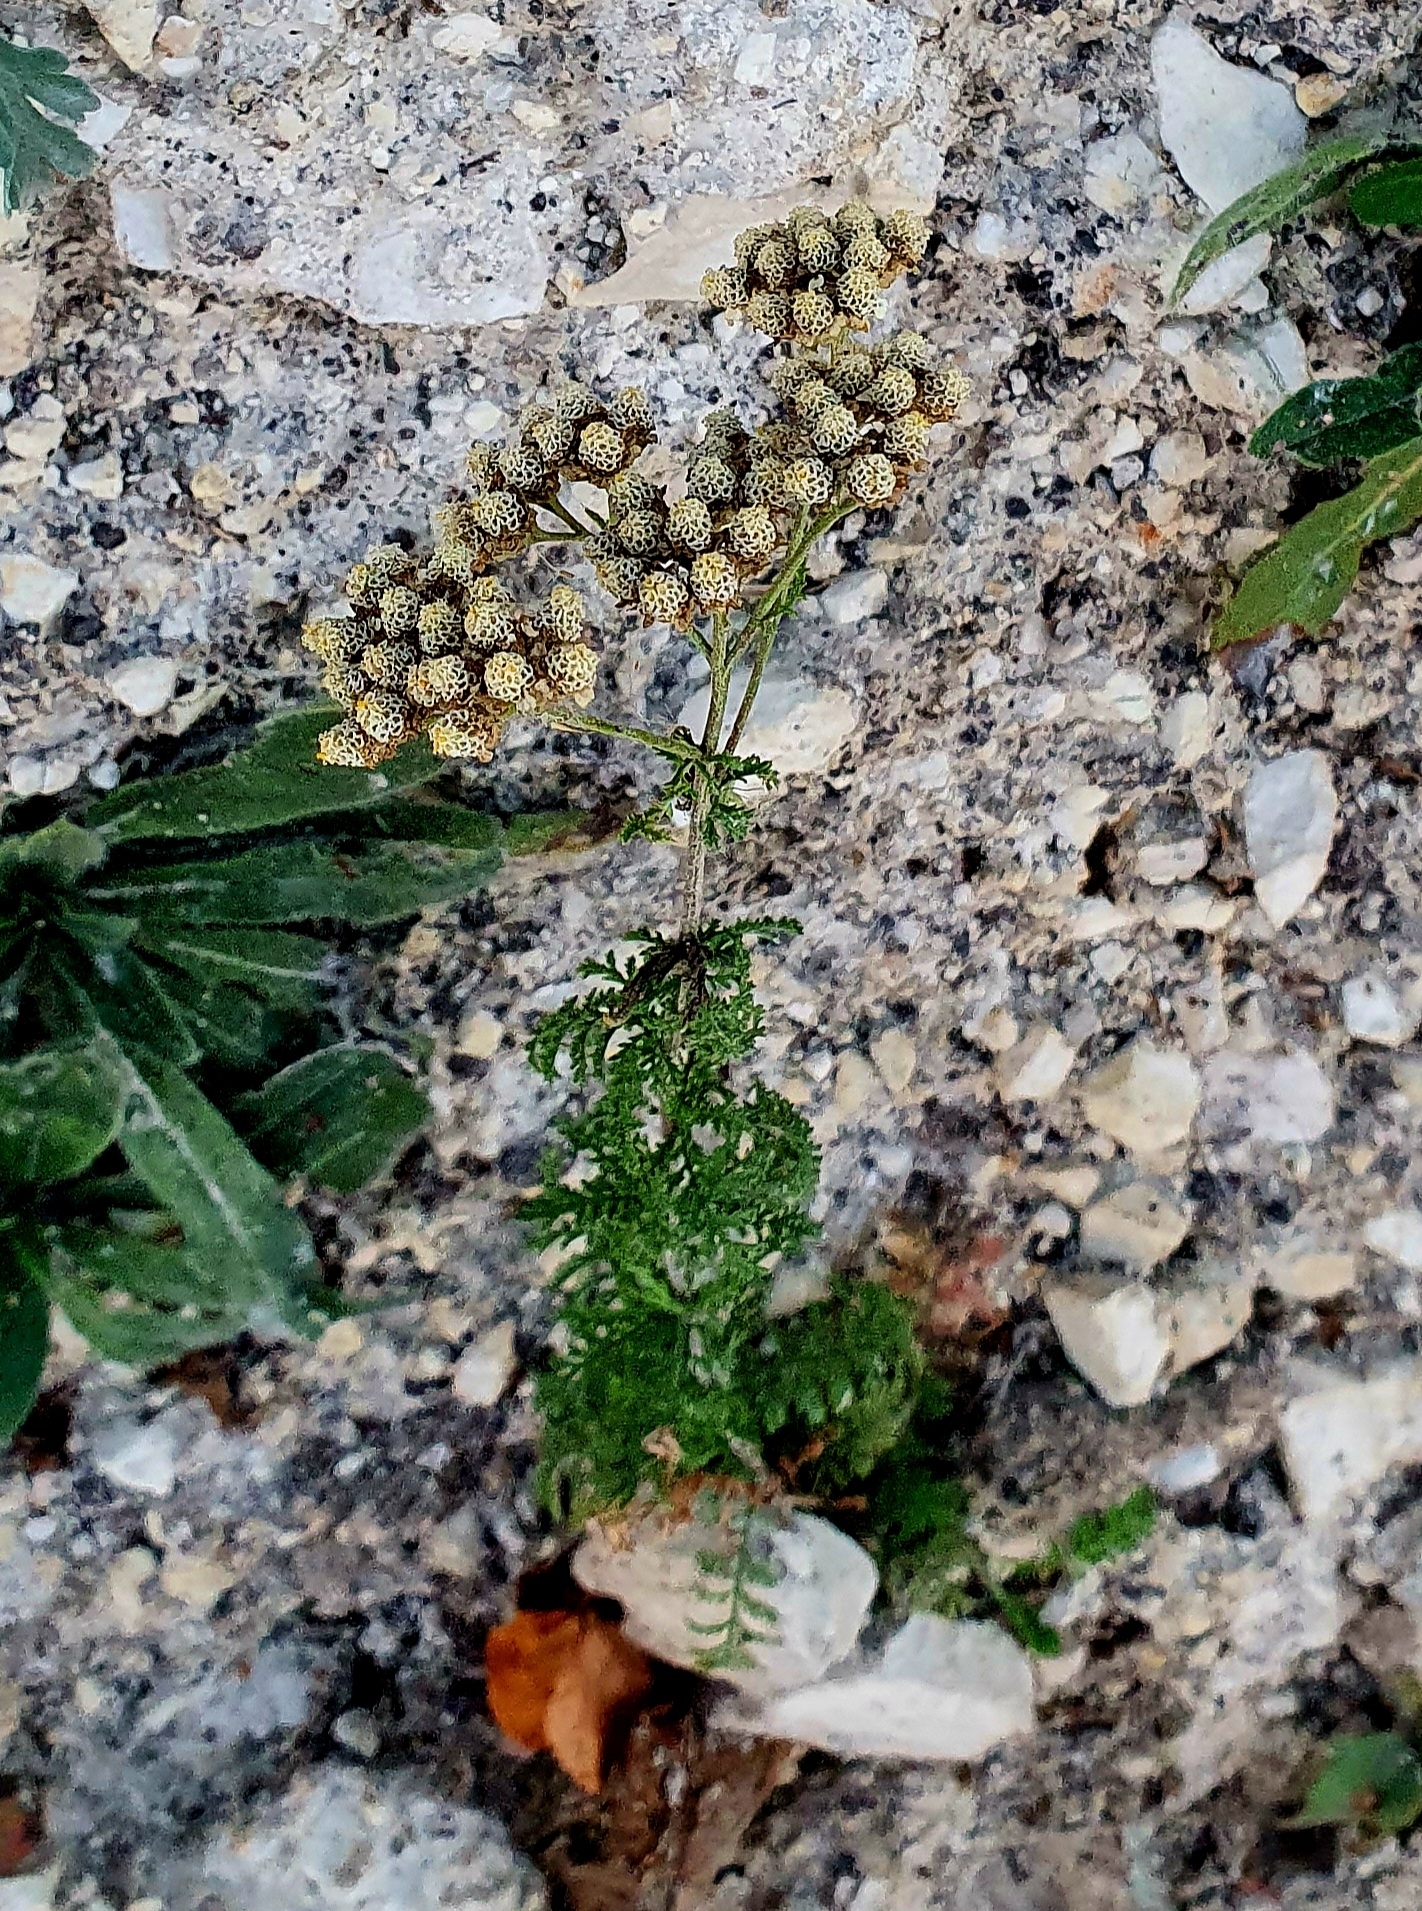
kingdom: Plantae
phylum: Tracheophyta
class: Magnoliopsida
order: Asterales
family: Asteraceae
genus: Achillea
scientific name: Achillea nobilis
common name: Noble yarrow
